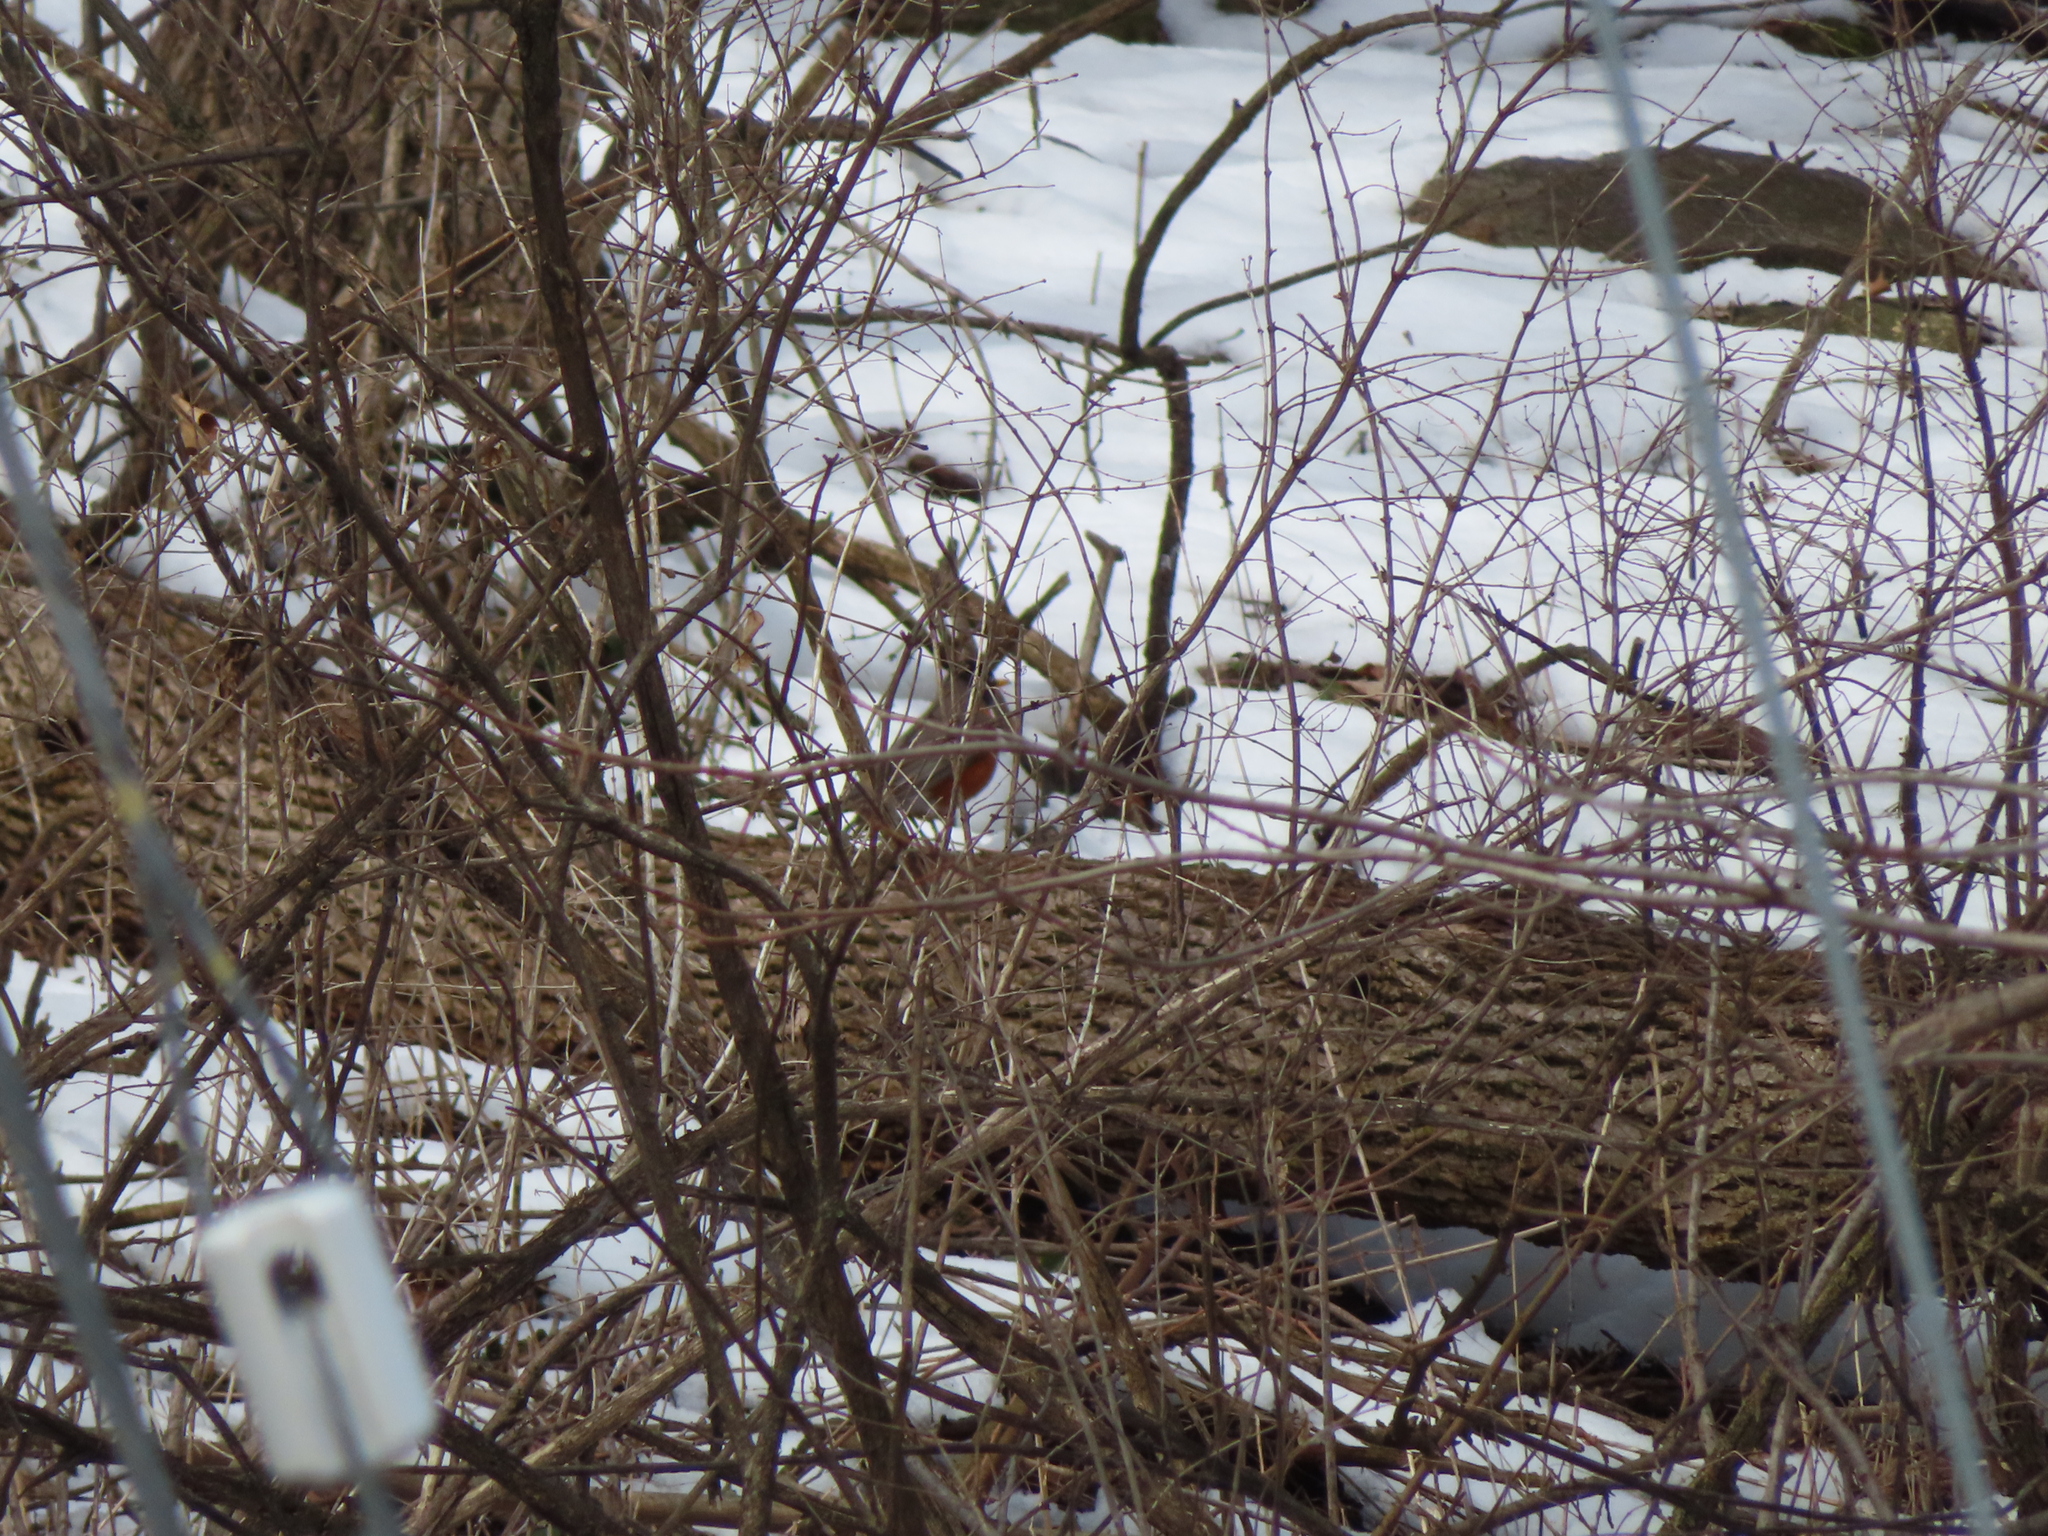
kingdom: Animalia
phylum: Chordata
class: Aves
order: Passeriformes
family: Turdidae
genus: Turdus
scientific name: Turdus migratorius
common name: American robin
